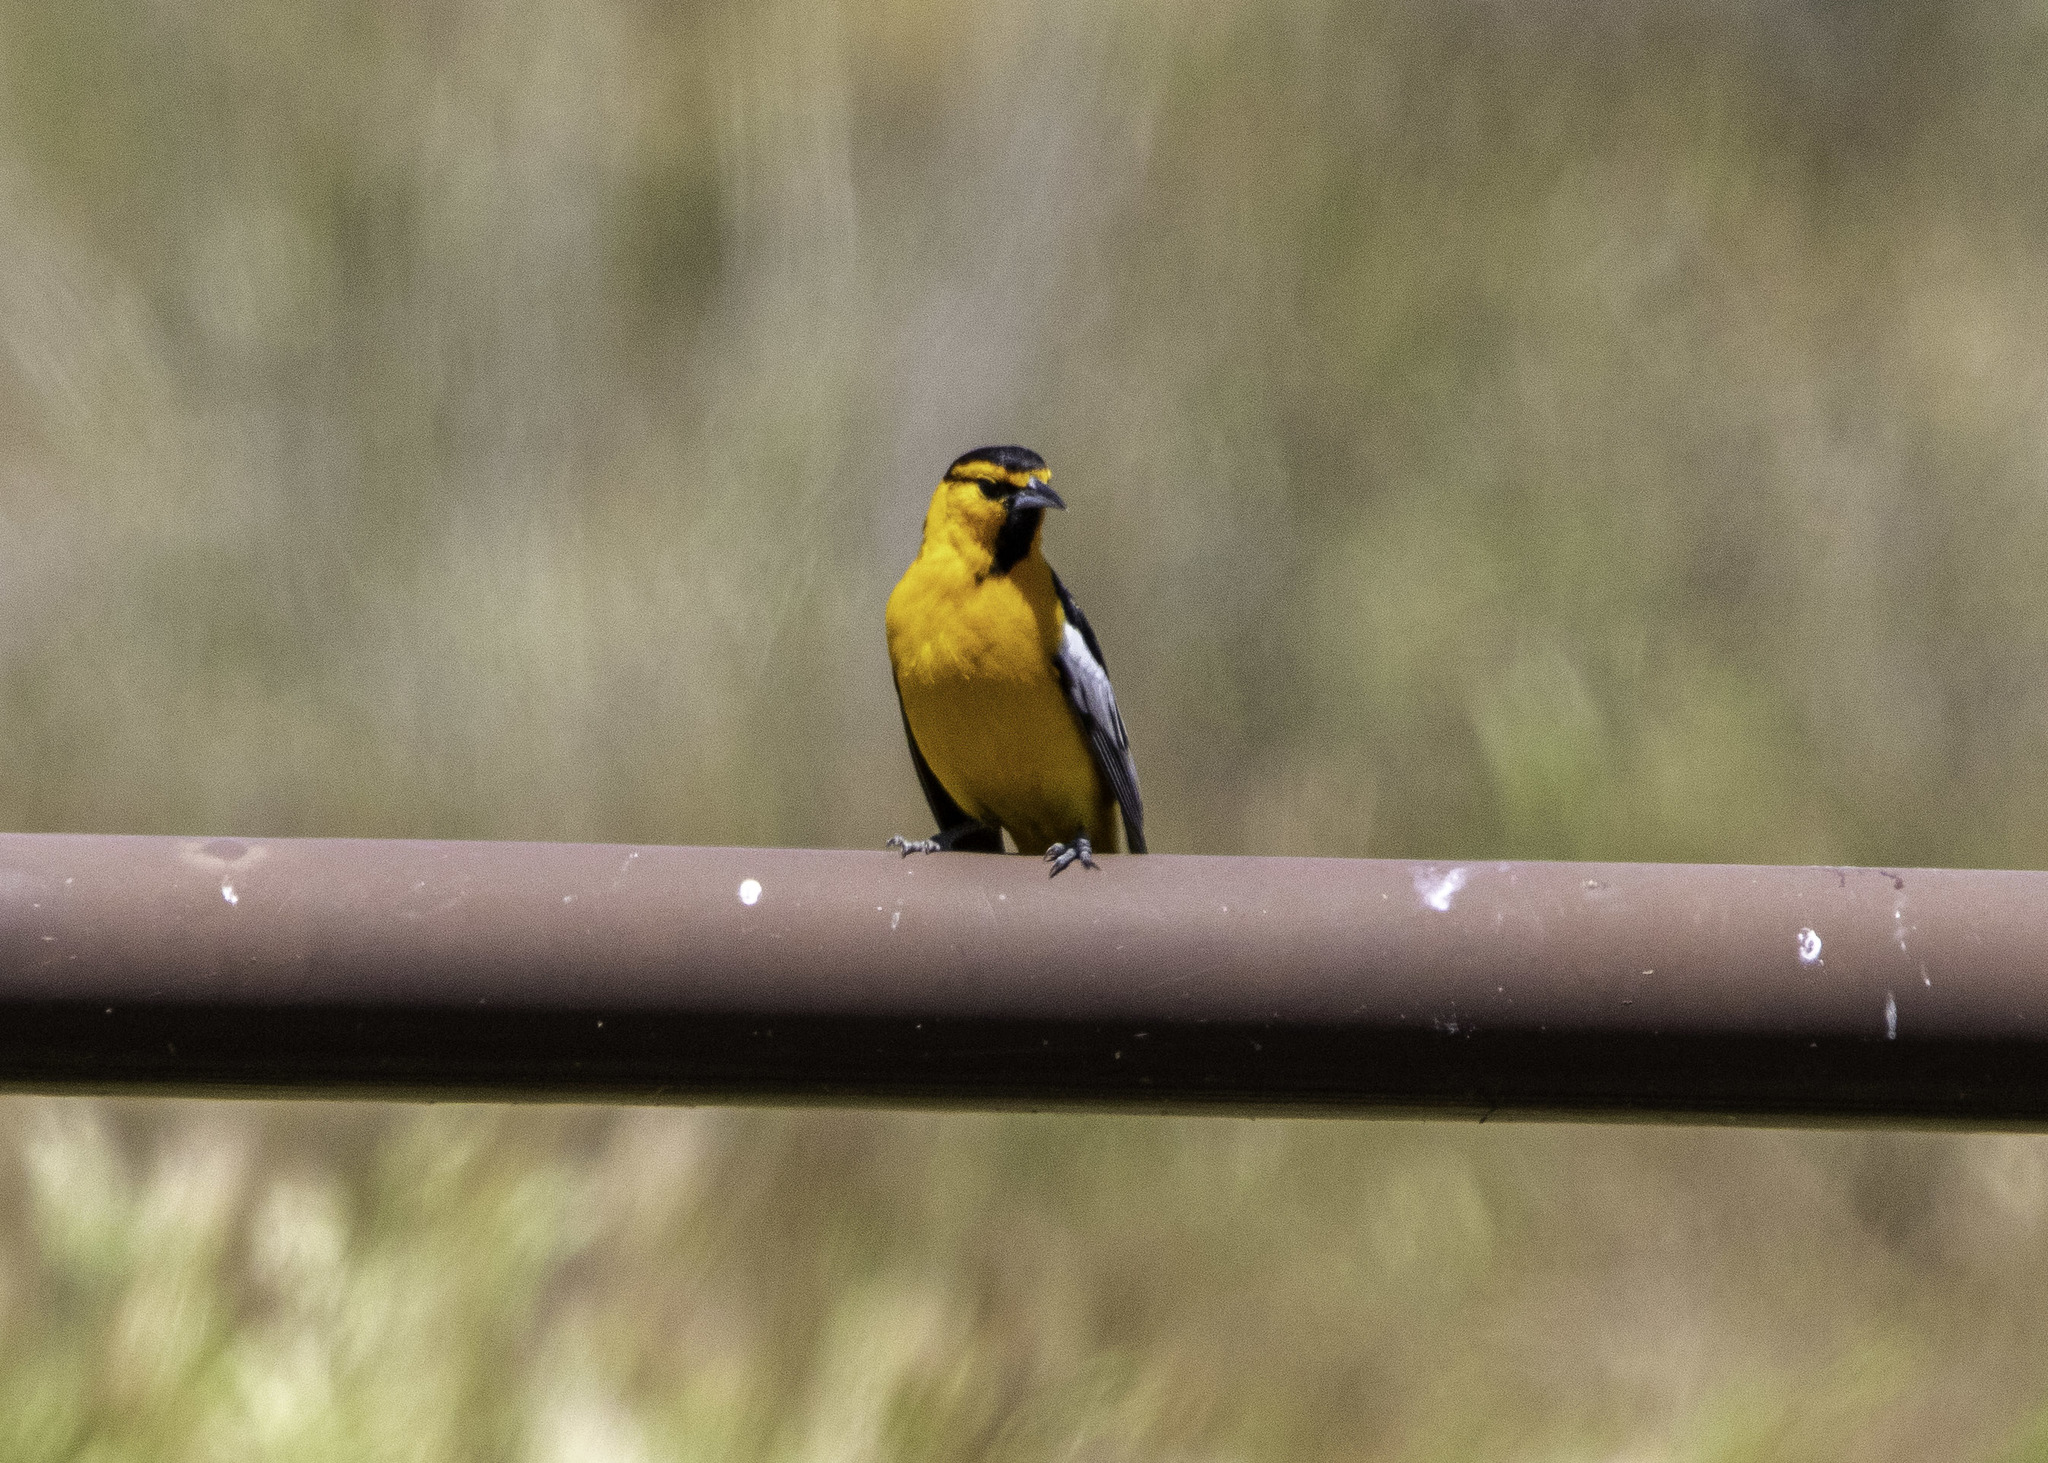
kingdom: Animalia
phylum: Chordata
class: Aves
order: Passeriformes
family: Icteridae
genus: Icterus
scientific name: Icterus bullockii
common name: Bullock's oriole
